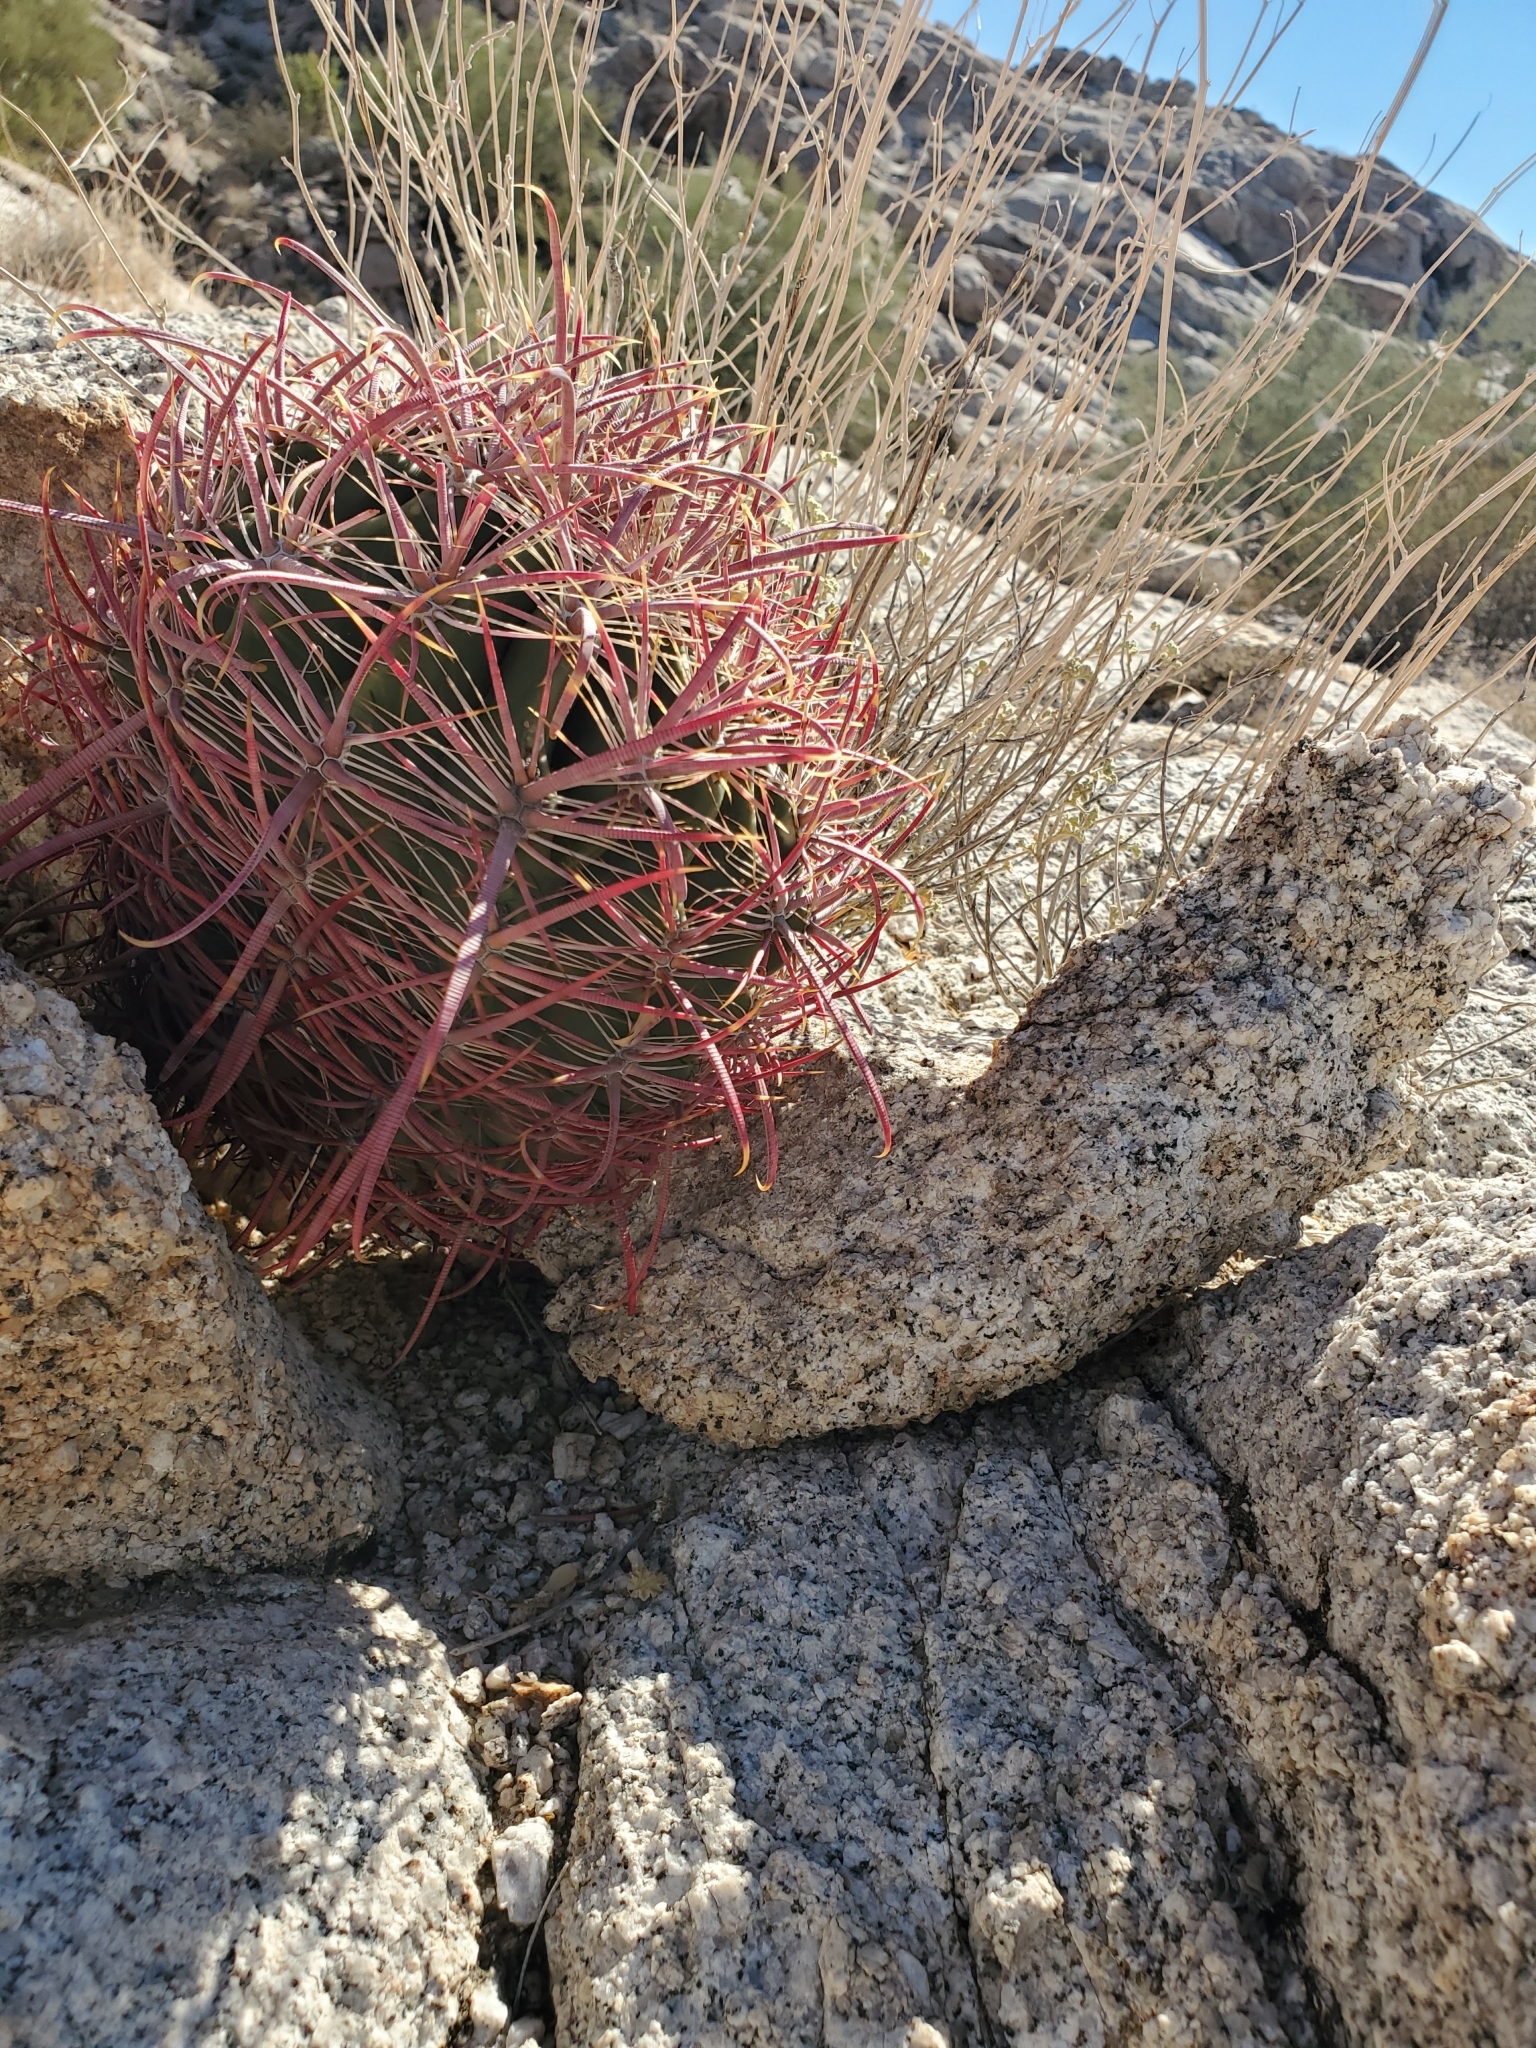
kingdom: Plantae
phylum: Tracheophyta
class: Magnoliopsida
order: Caryophyllales
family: Cactaceae
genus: Ferocactus
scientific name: Ferocactus cylindraceus
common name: California barrel cactus
